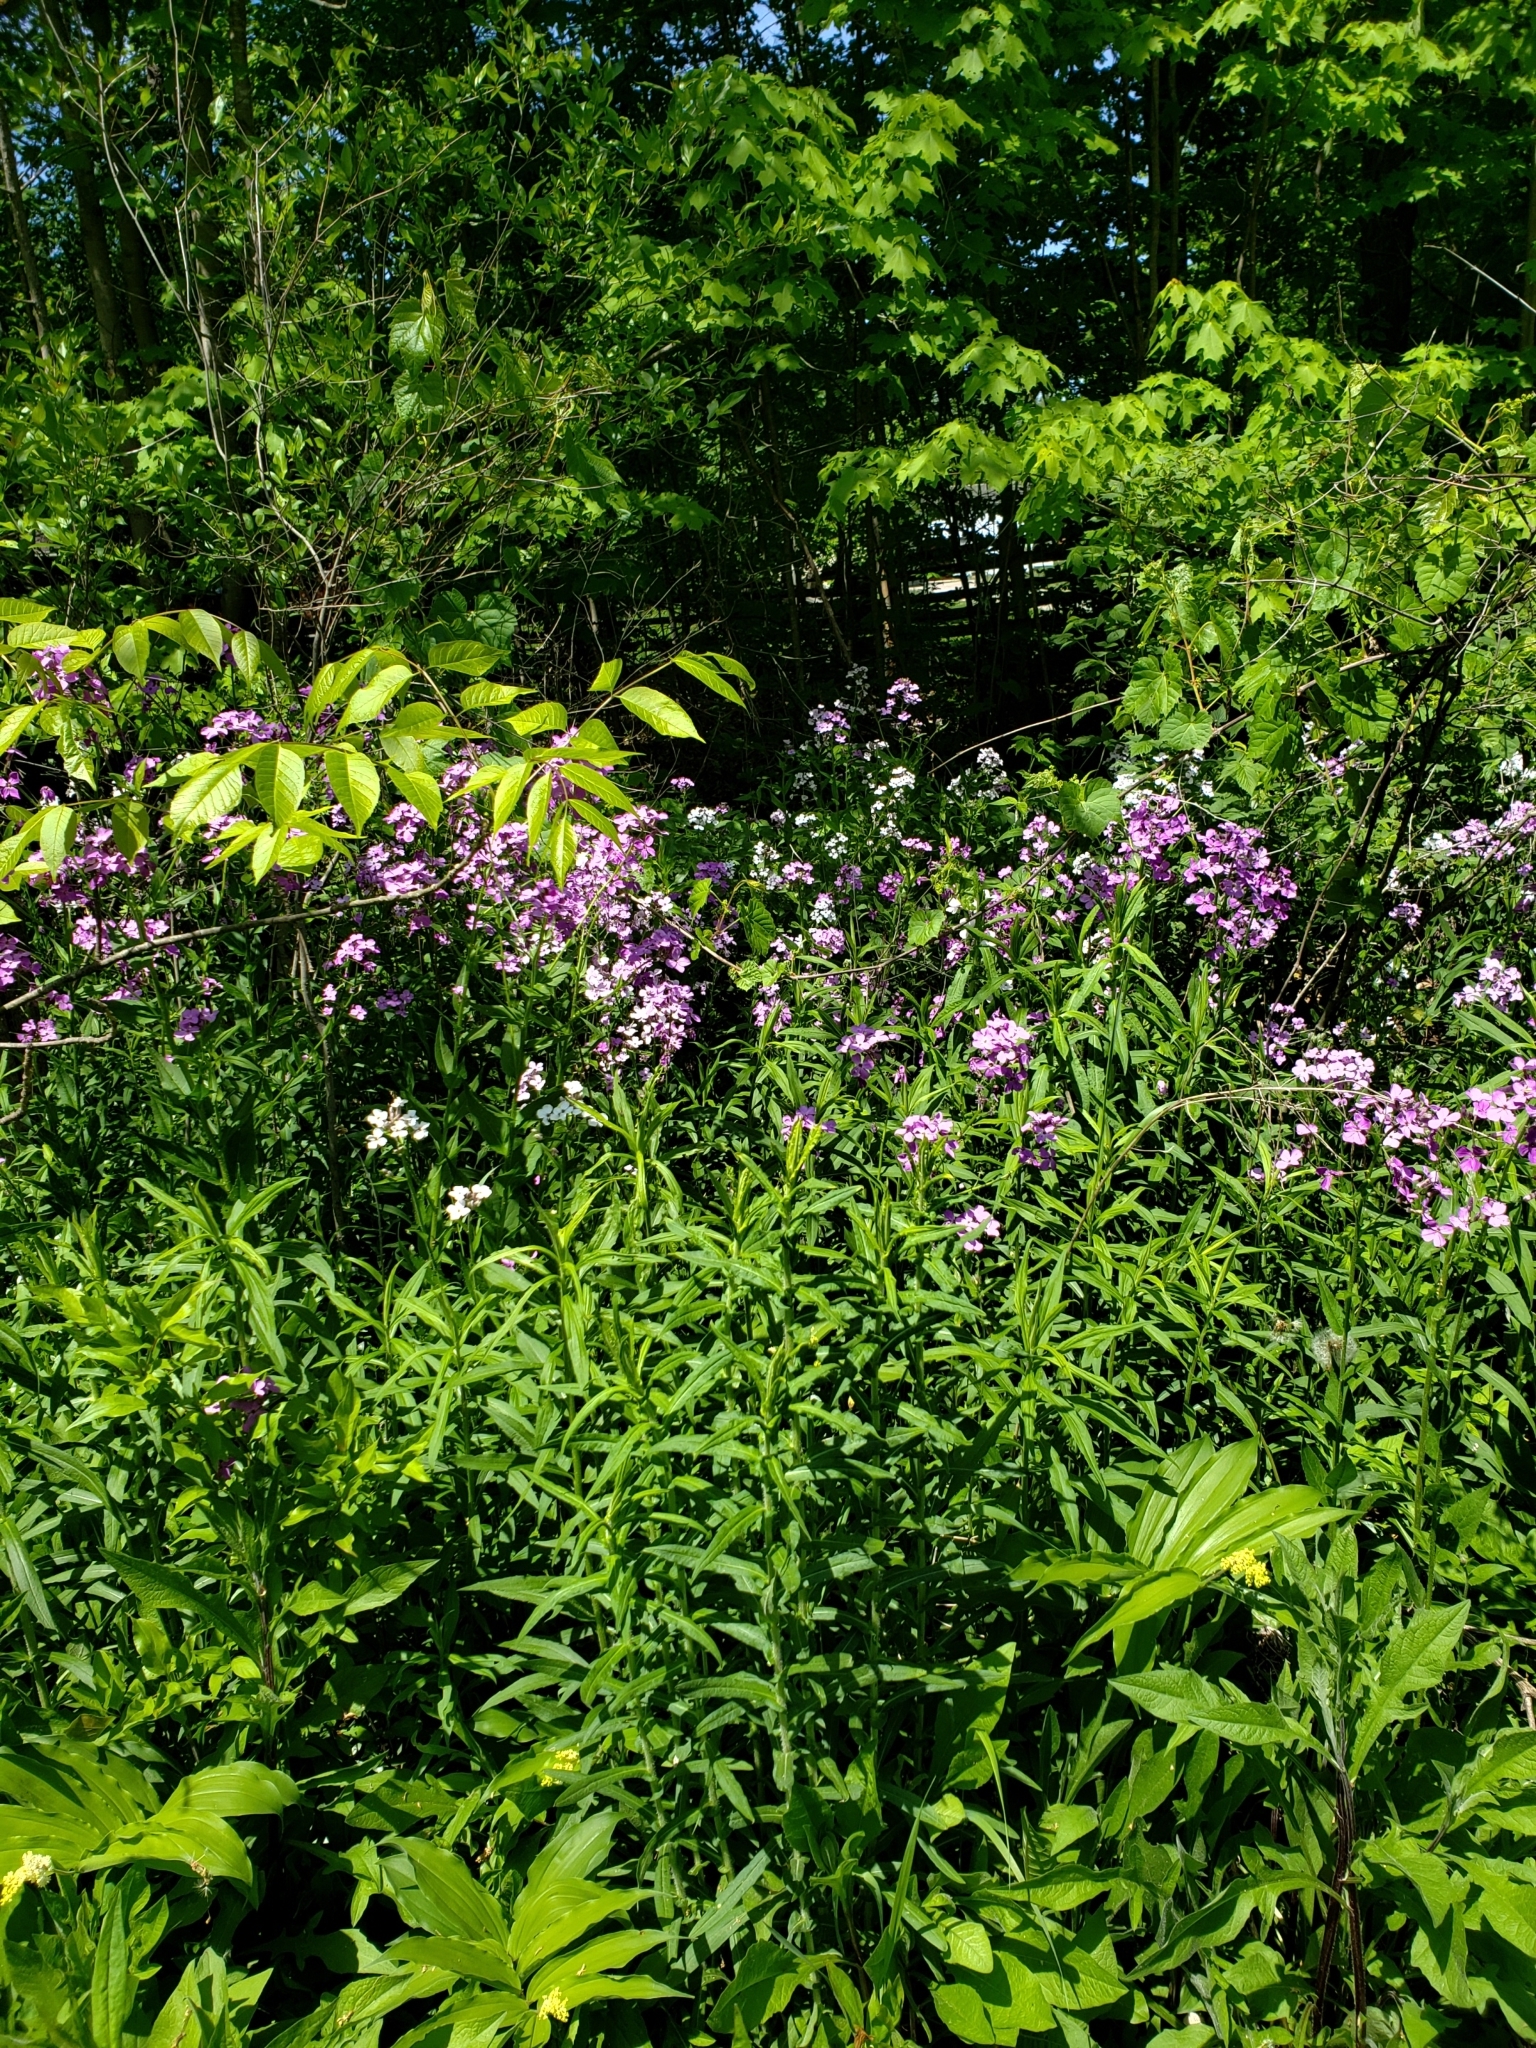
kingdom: Plantae
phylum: Tracheophyta
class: Magnoliopsida
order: Brassicales
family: Brassicaceae
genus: Hesperis
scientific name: Hesperis matronalis
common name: Dame's-violet
